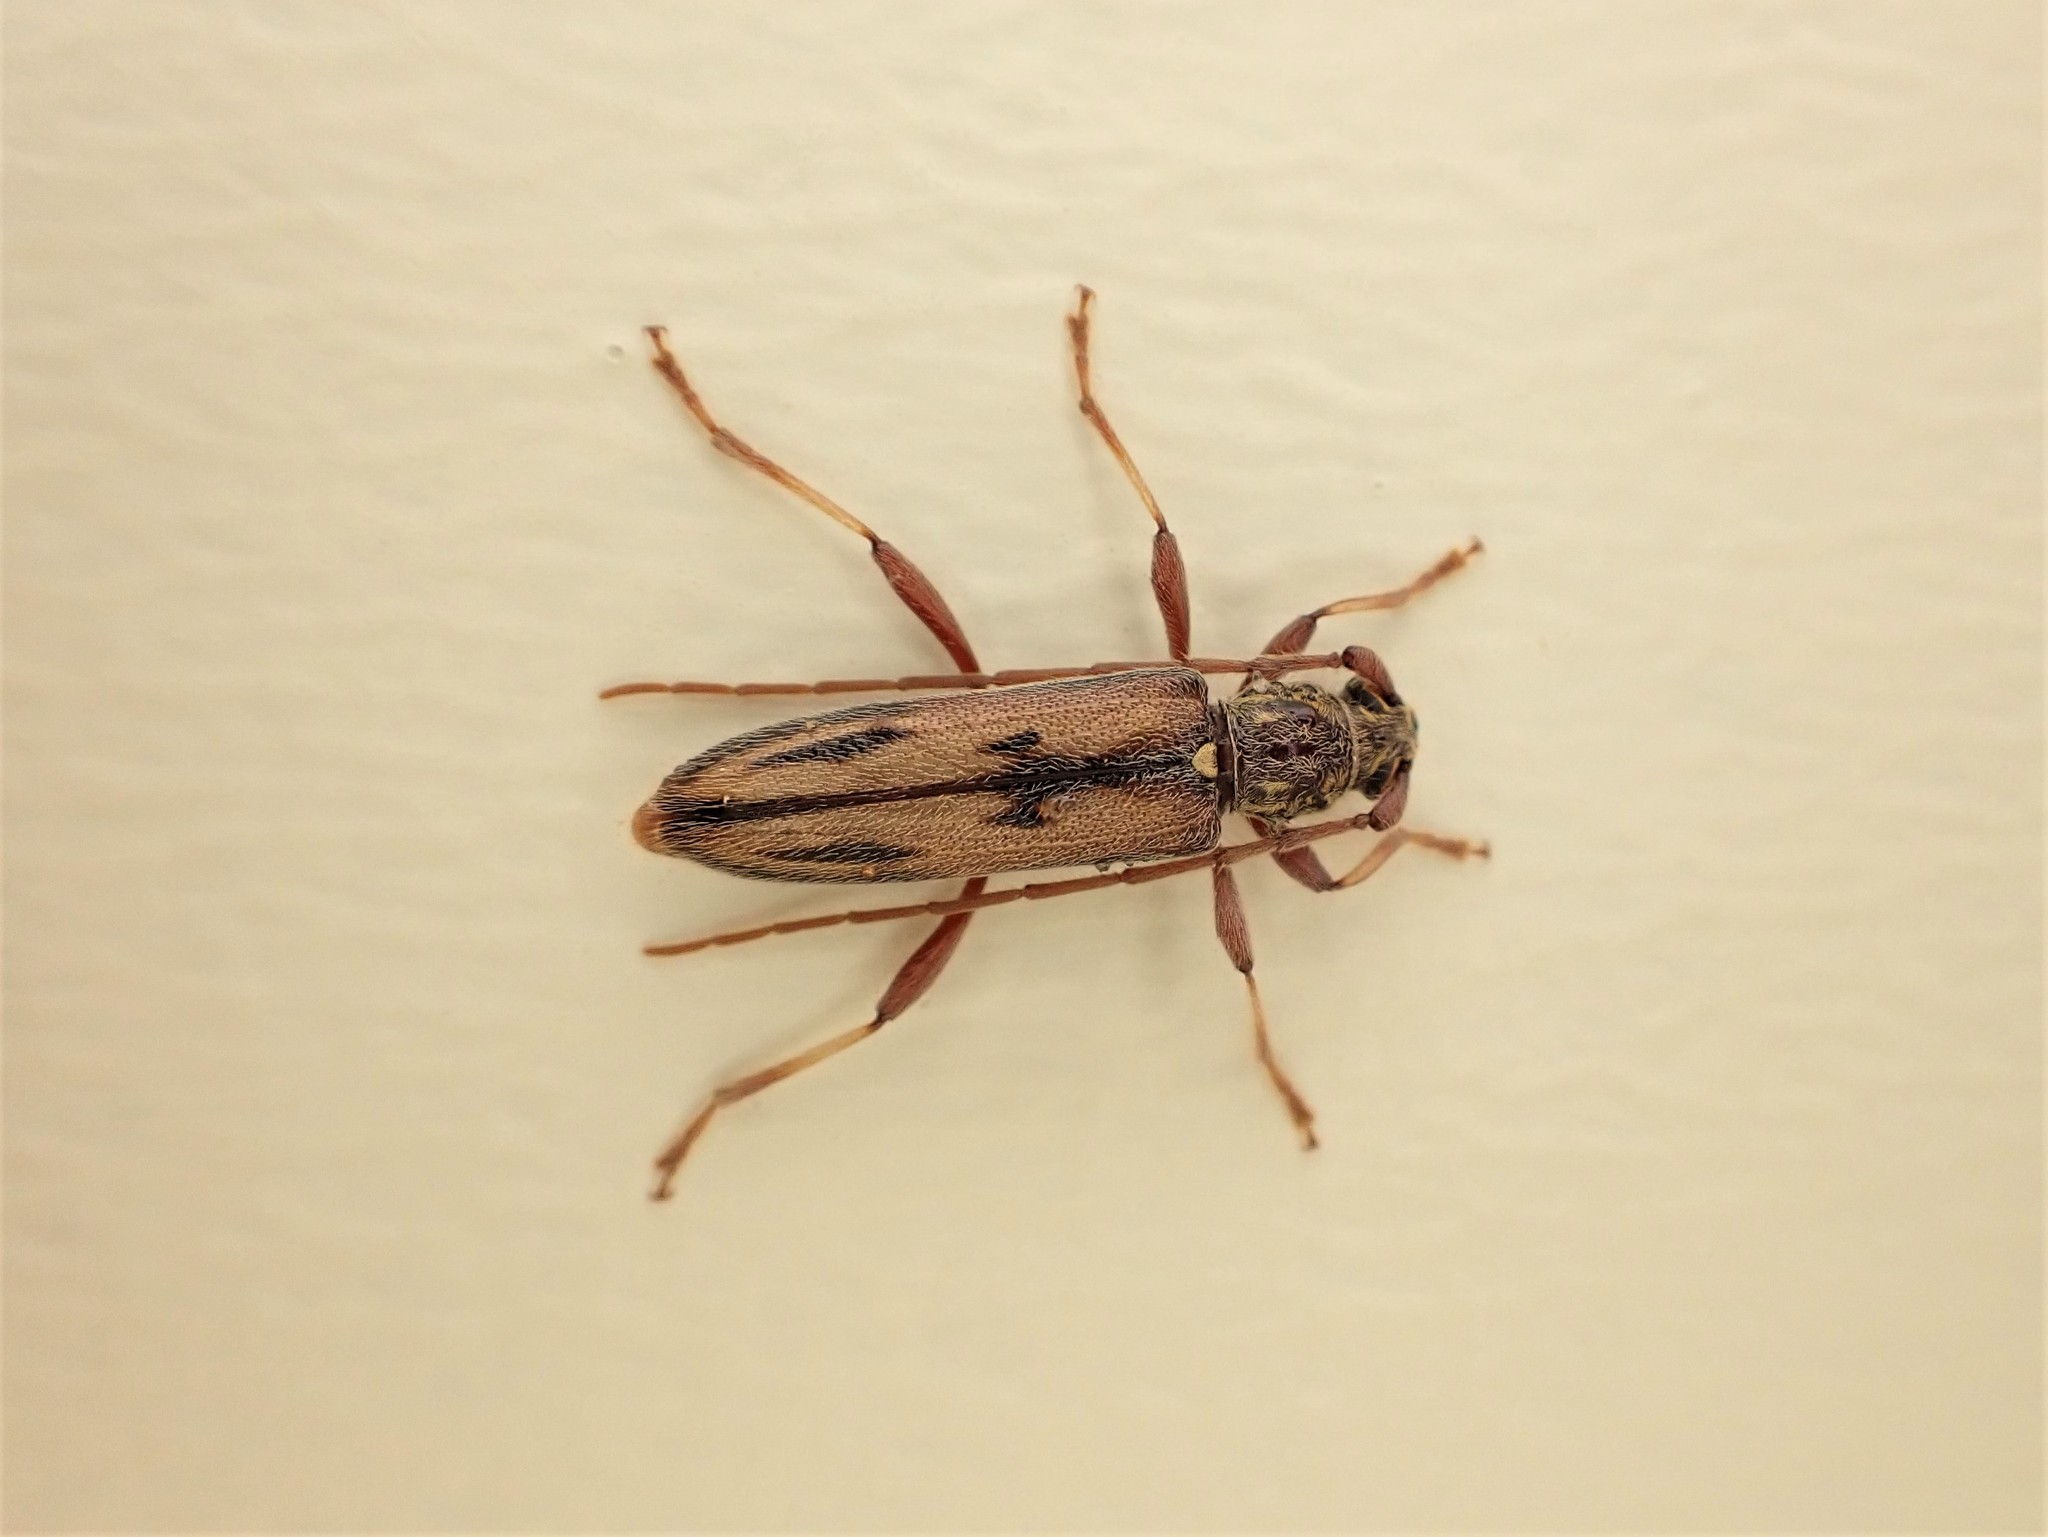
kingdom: Animalia
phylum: Arthropoda
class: Insecta
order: Coleoptera
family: Cerambycidae
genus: Didymocantha
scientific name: Didymocantha sublineata
